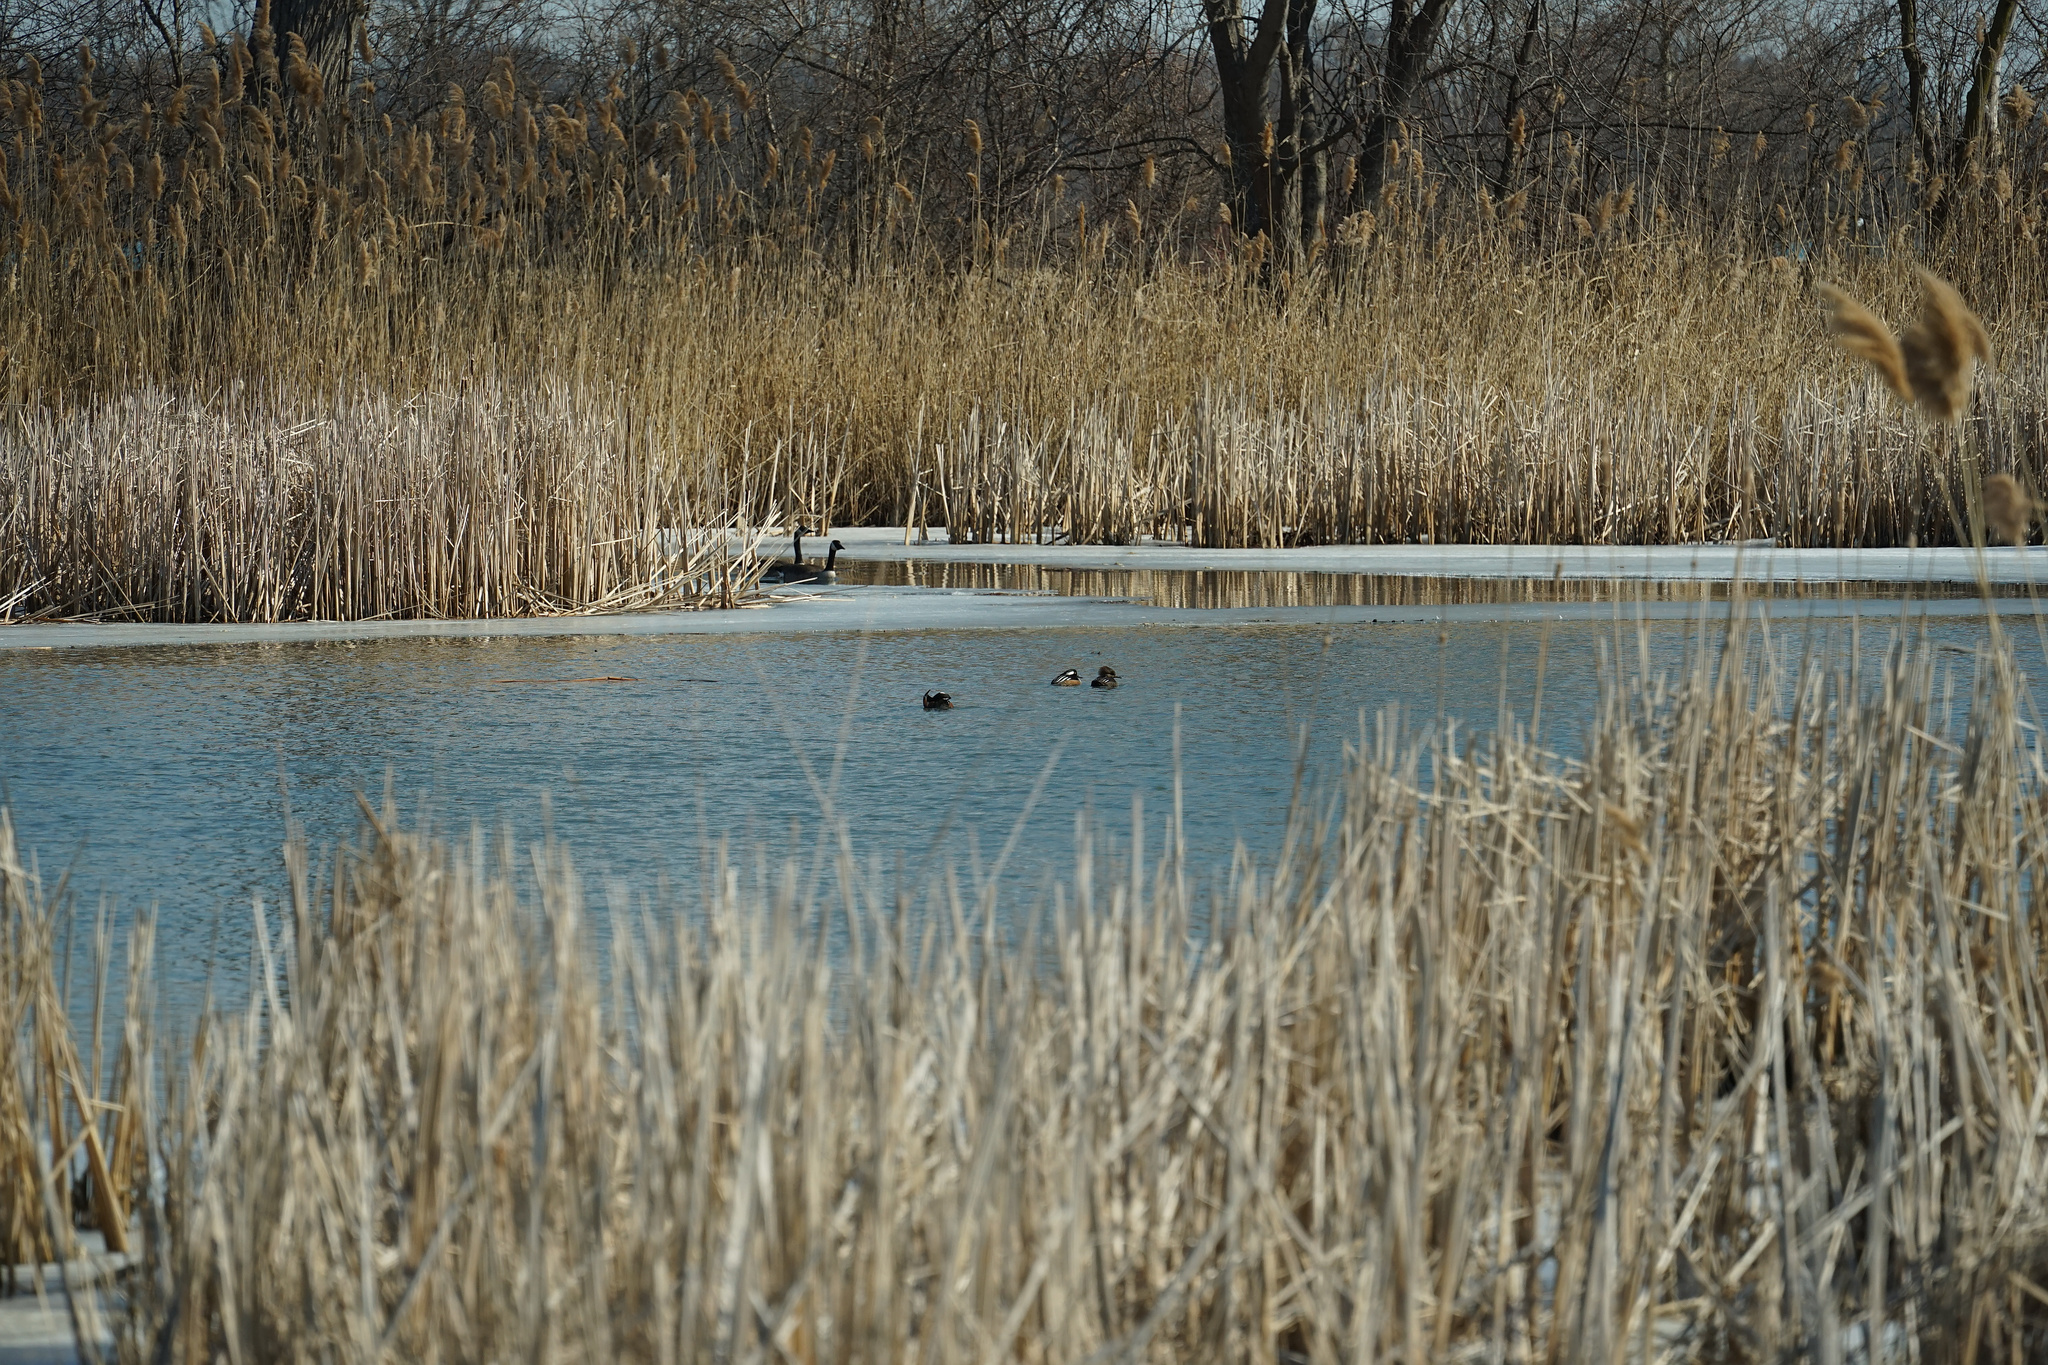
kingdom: Animalia
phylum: Chordata
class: Aves
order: Anseriformes
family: Anatidae
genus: Lophodytes
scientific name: Lophodytes cucullatus
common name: Hooded merganser
